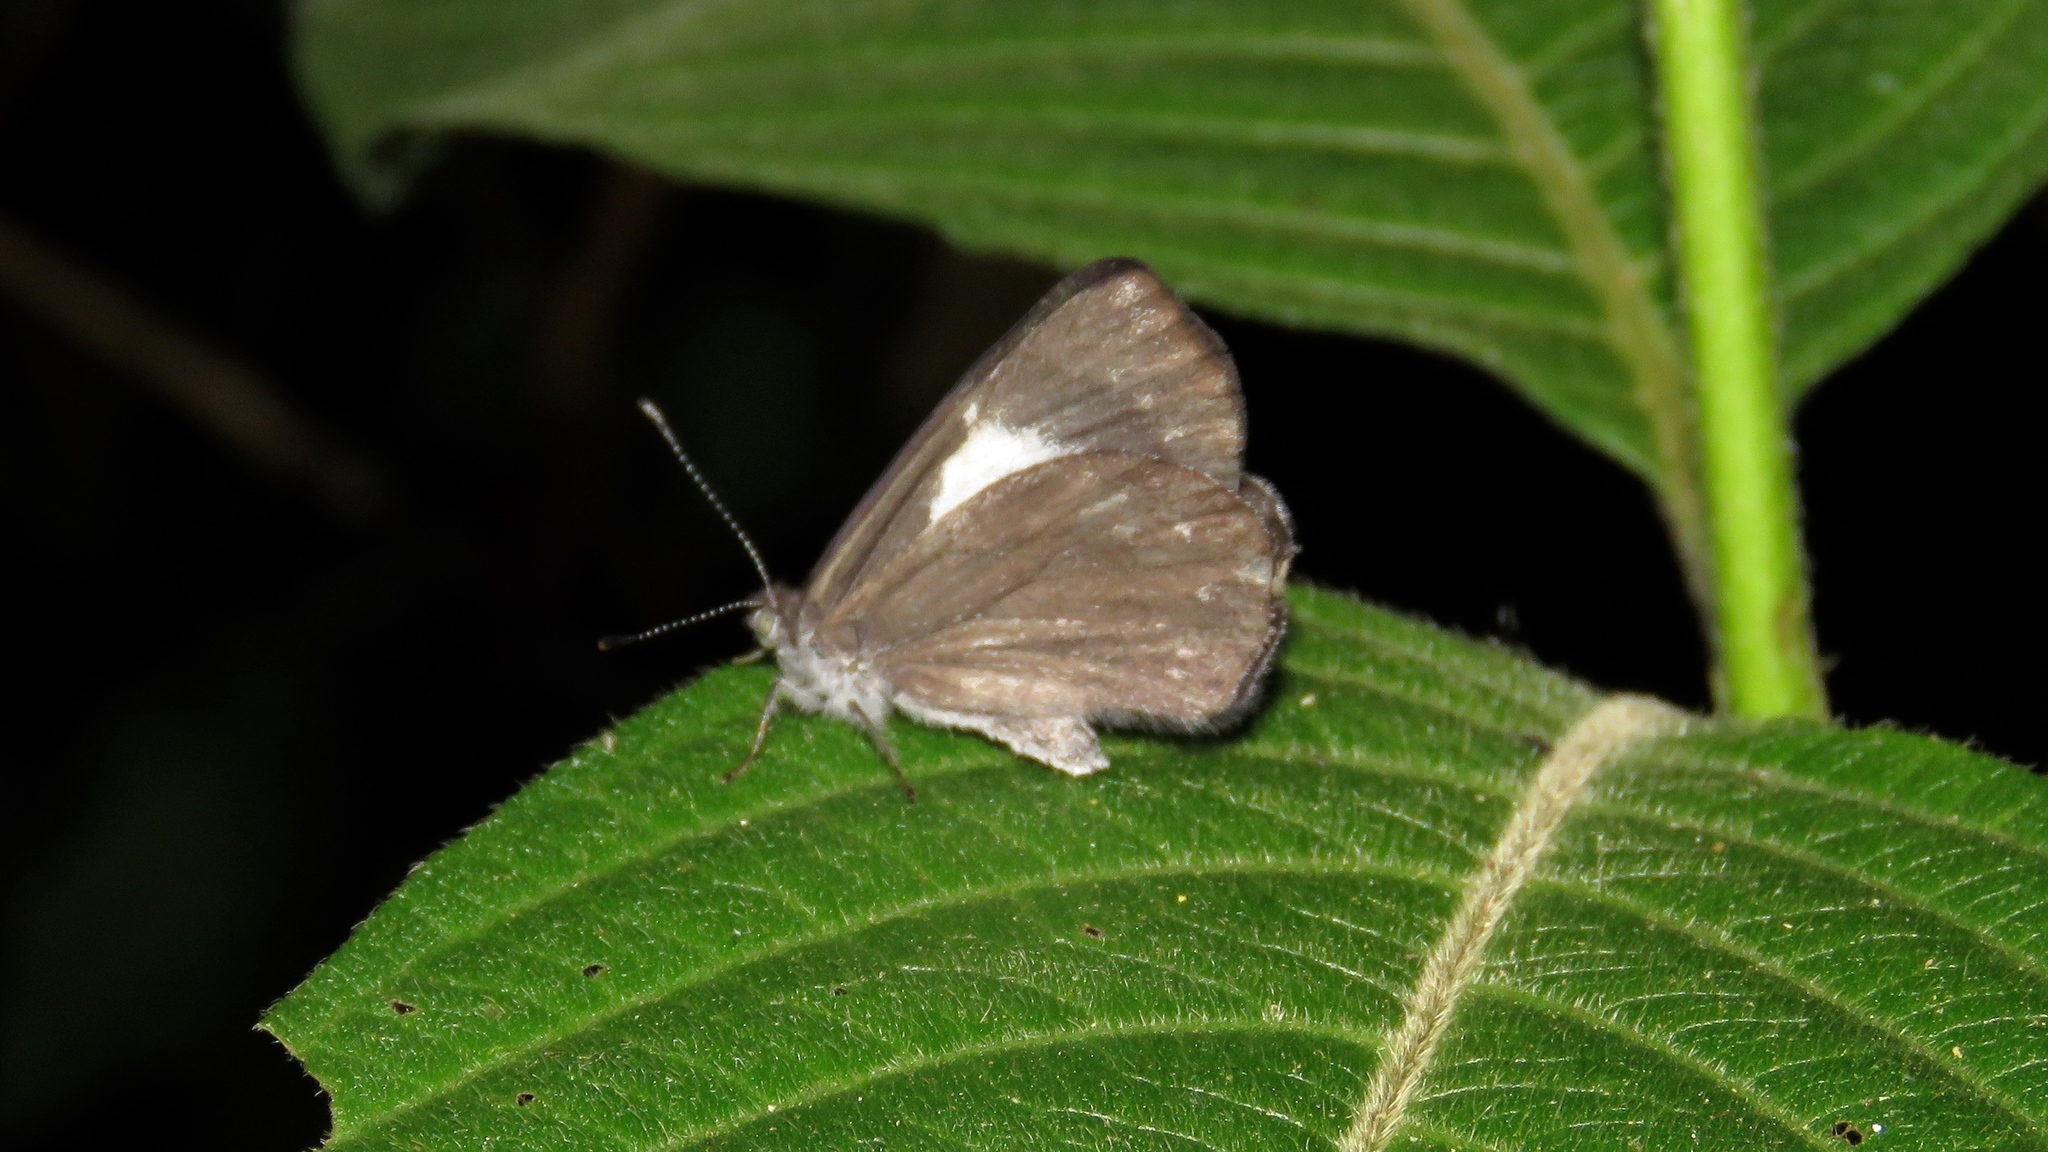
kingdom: Animalia
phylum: Arthropoda
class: Insecta
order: Lepidoptera
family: Riodinidae
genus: Corrachia
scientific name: Corrachia leucoplaga
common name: Costa rican metalmark
